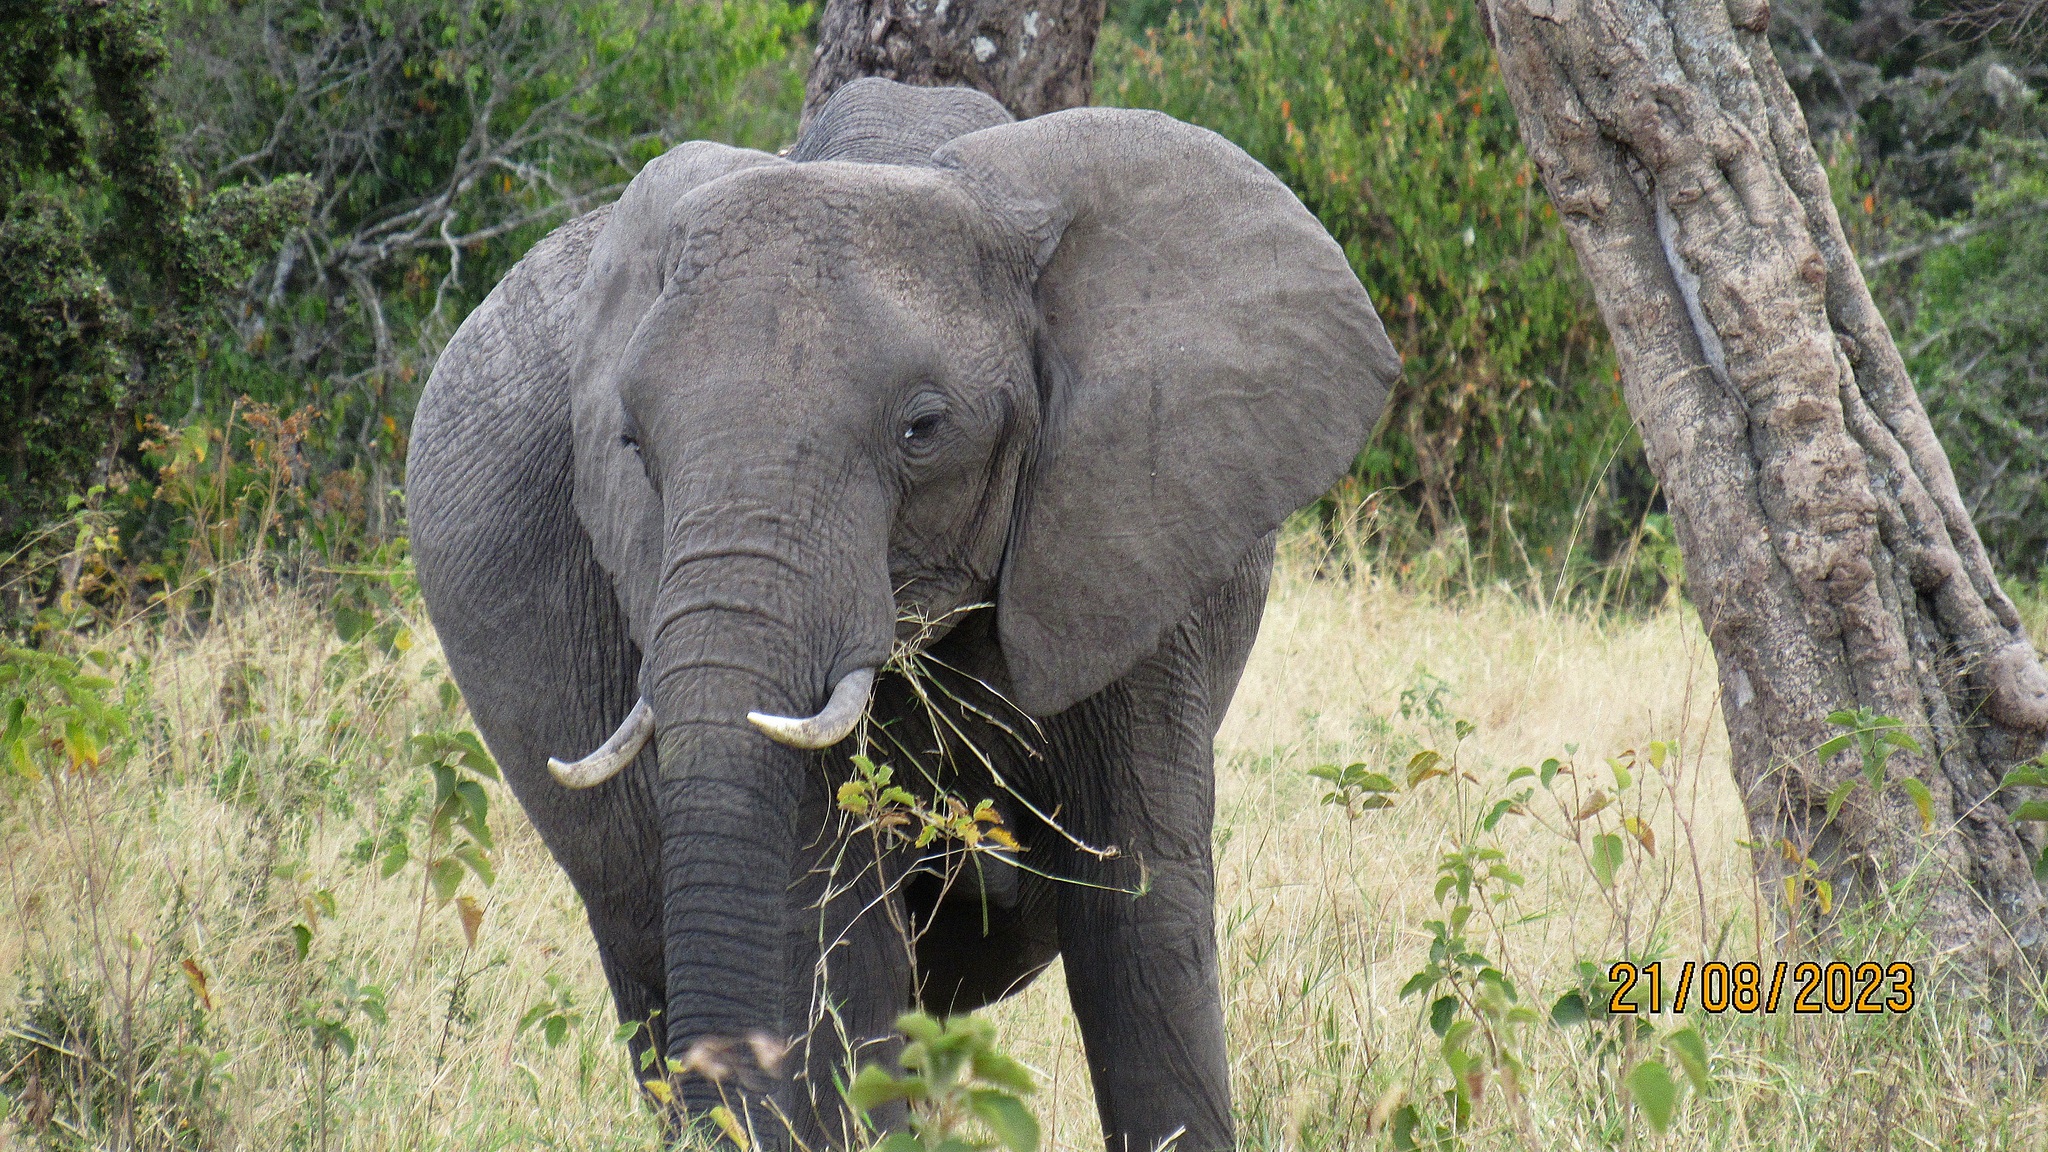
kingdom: Animalia
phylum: Chordata
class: Mammalia
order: Proboscidea
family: Elephantidae
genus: Loxodonta
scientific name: Loxodonta africana
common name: African elephant
